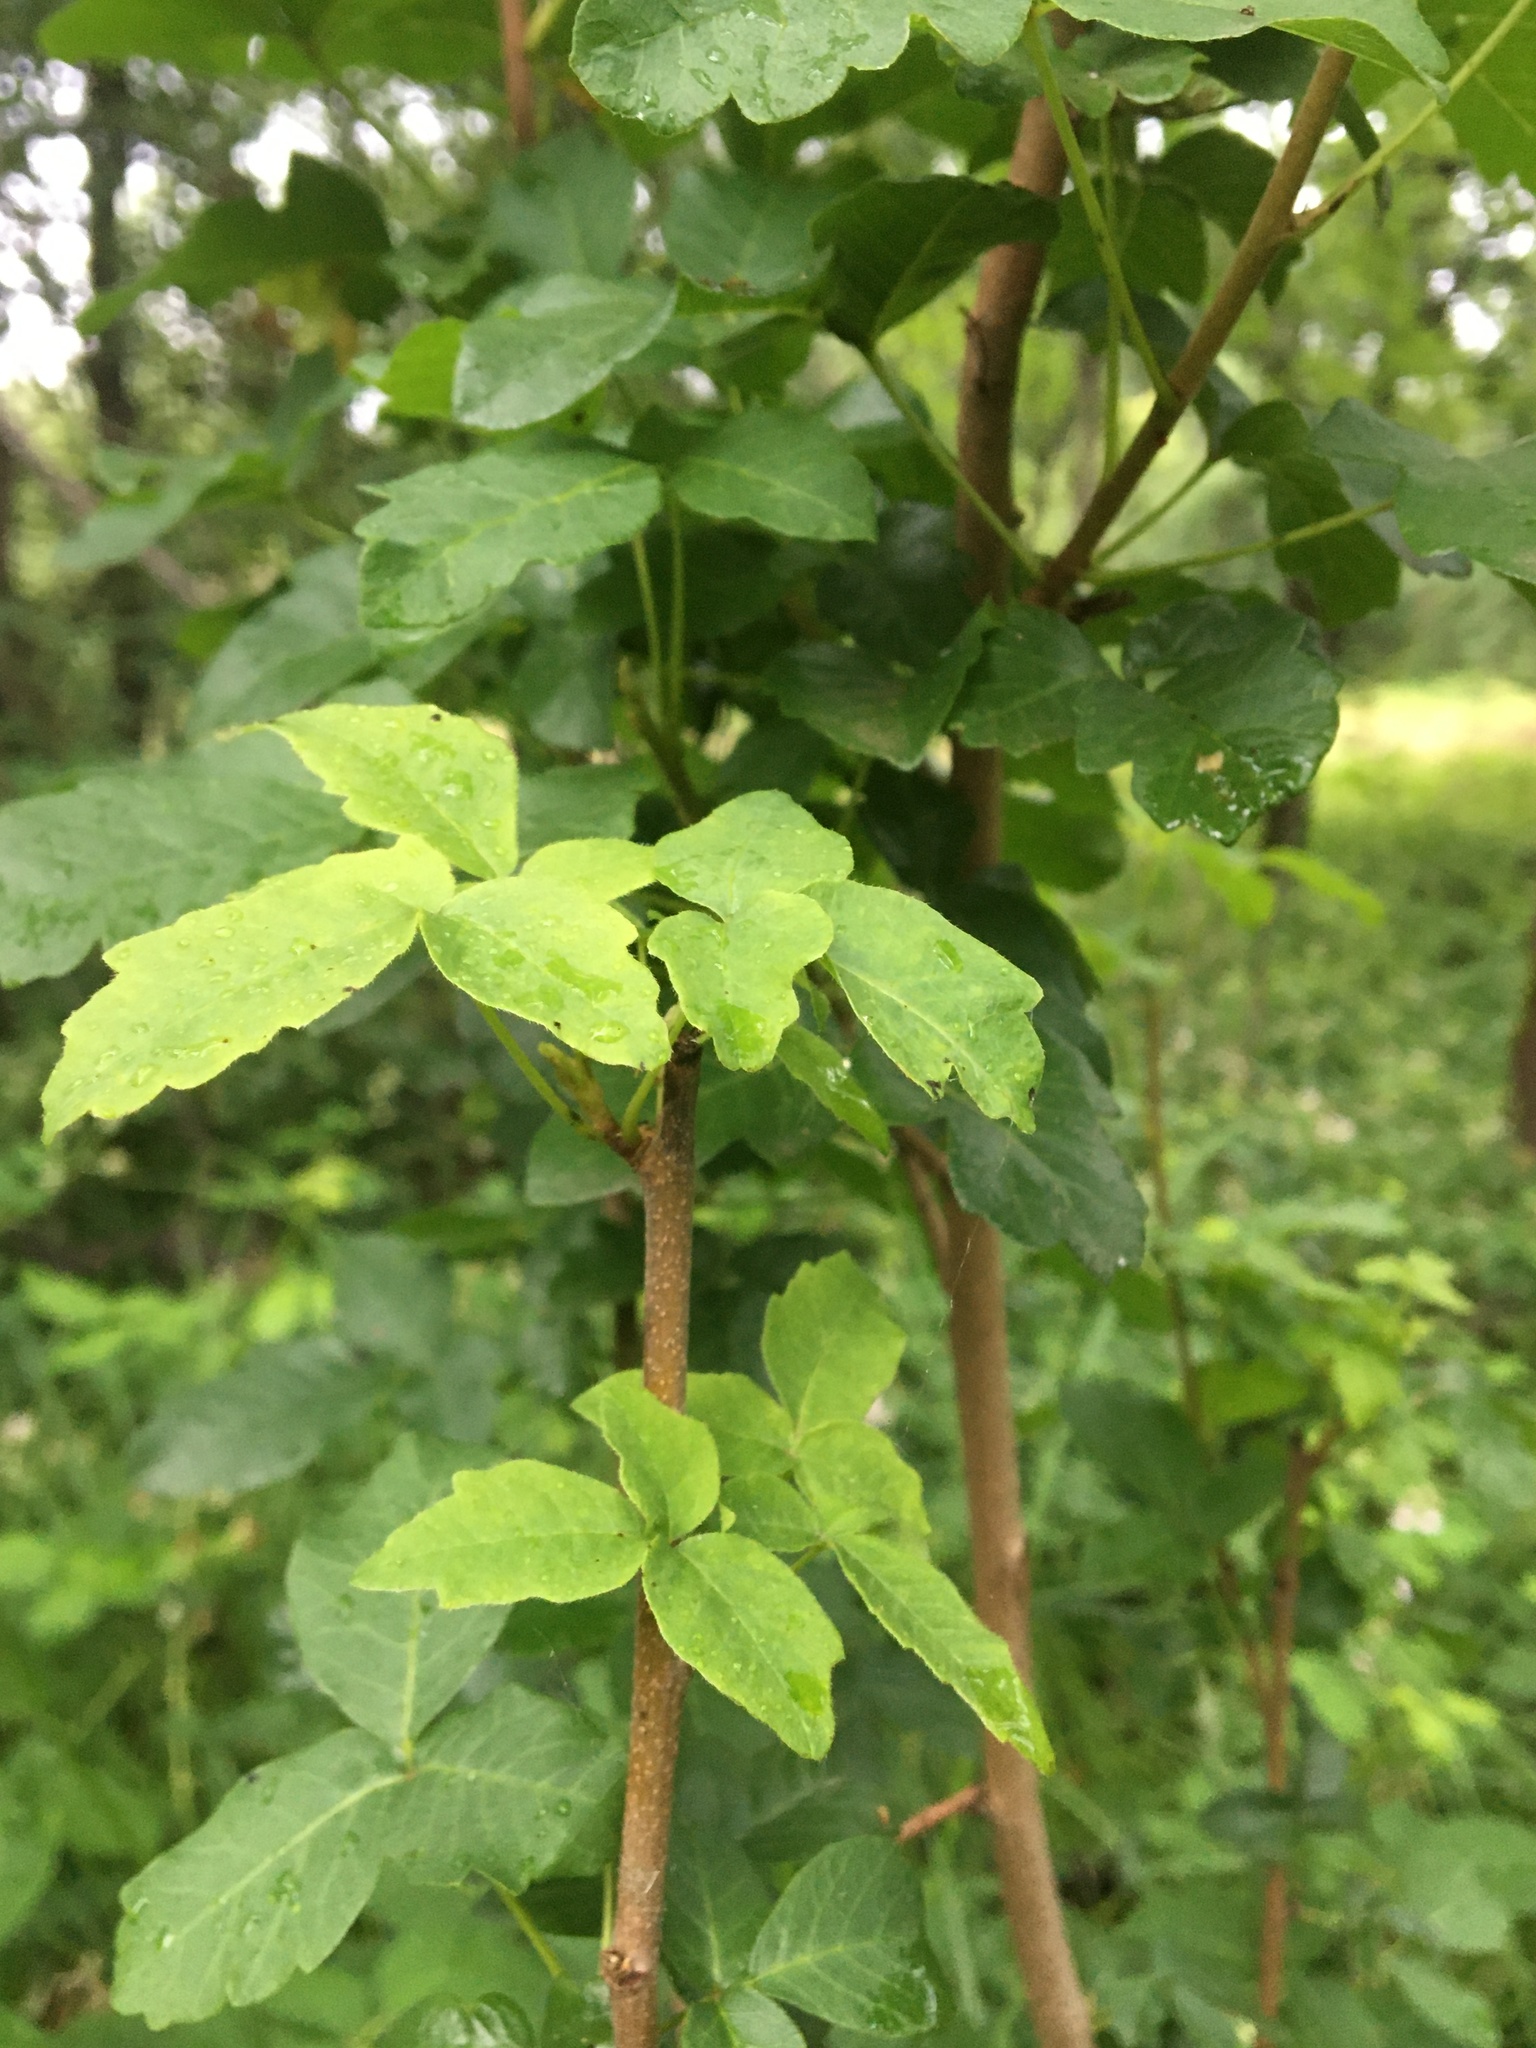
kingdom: Plantae
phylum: Tracheophyta
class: Magnoliopsida
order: Sapindales
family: Anacardiaceae
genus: Toxicodendron
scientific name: Toxicodendron diversilobum
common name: Pacific poison-oak
